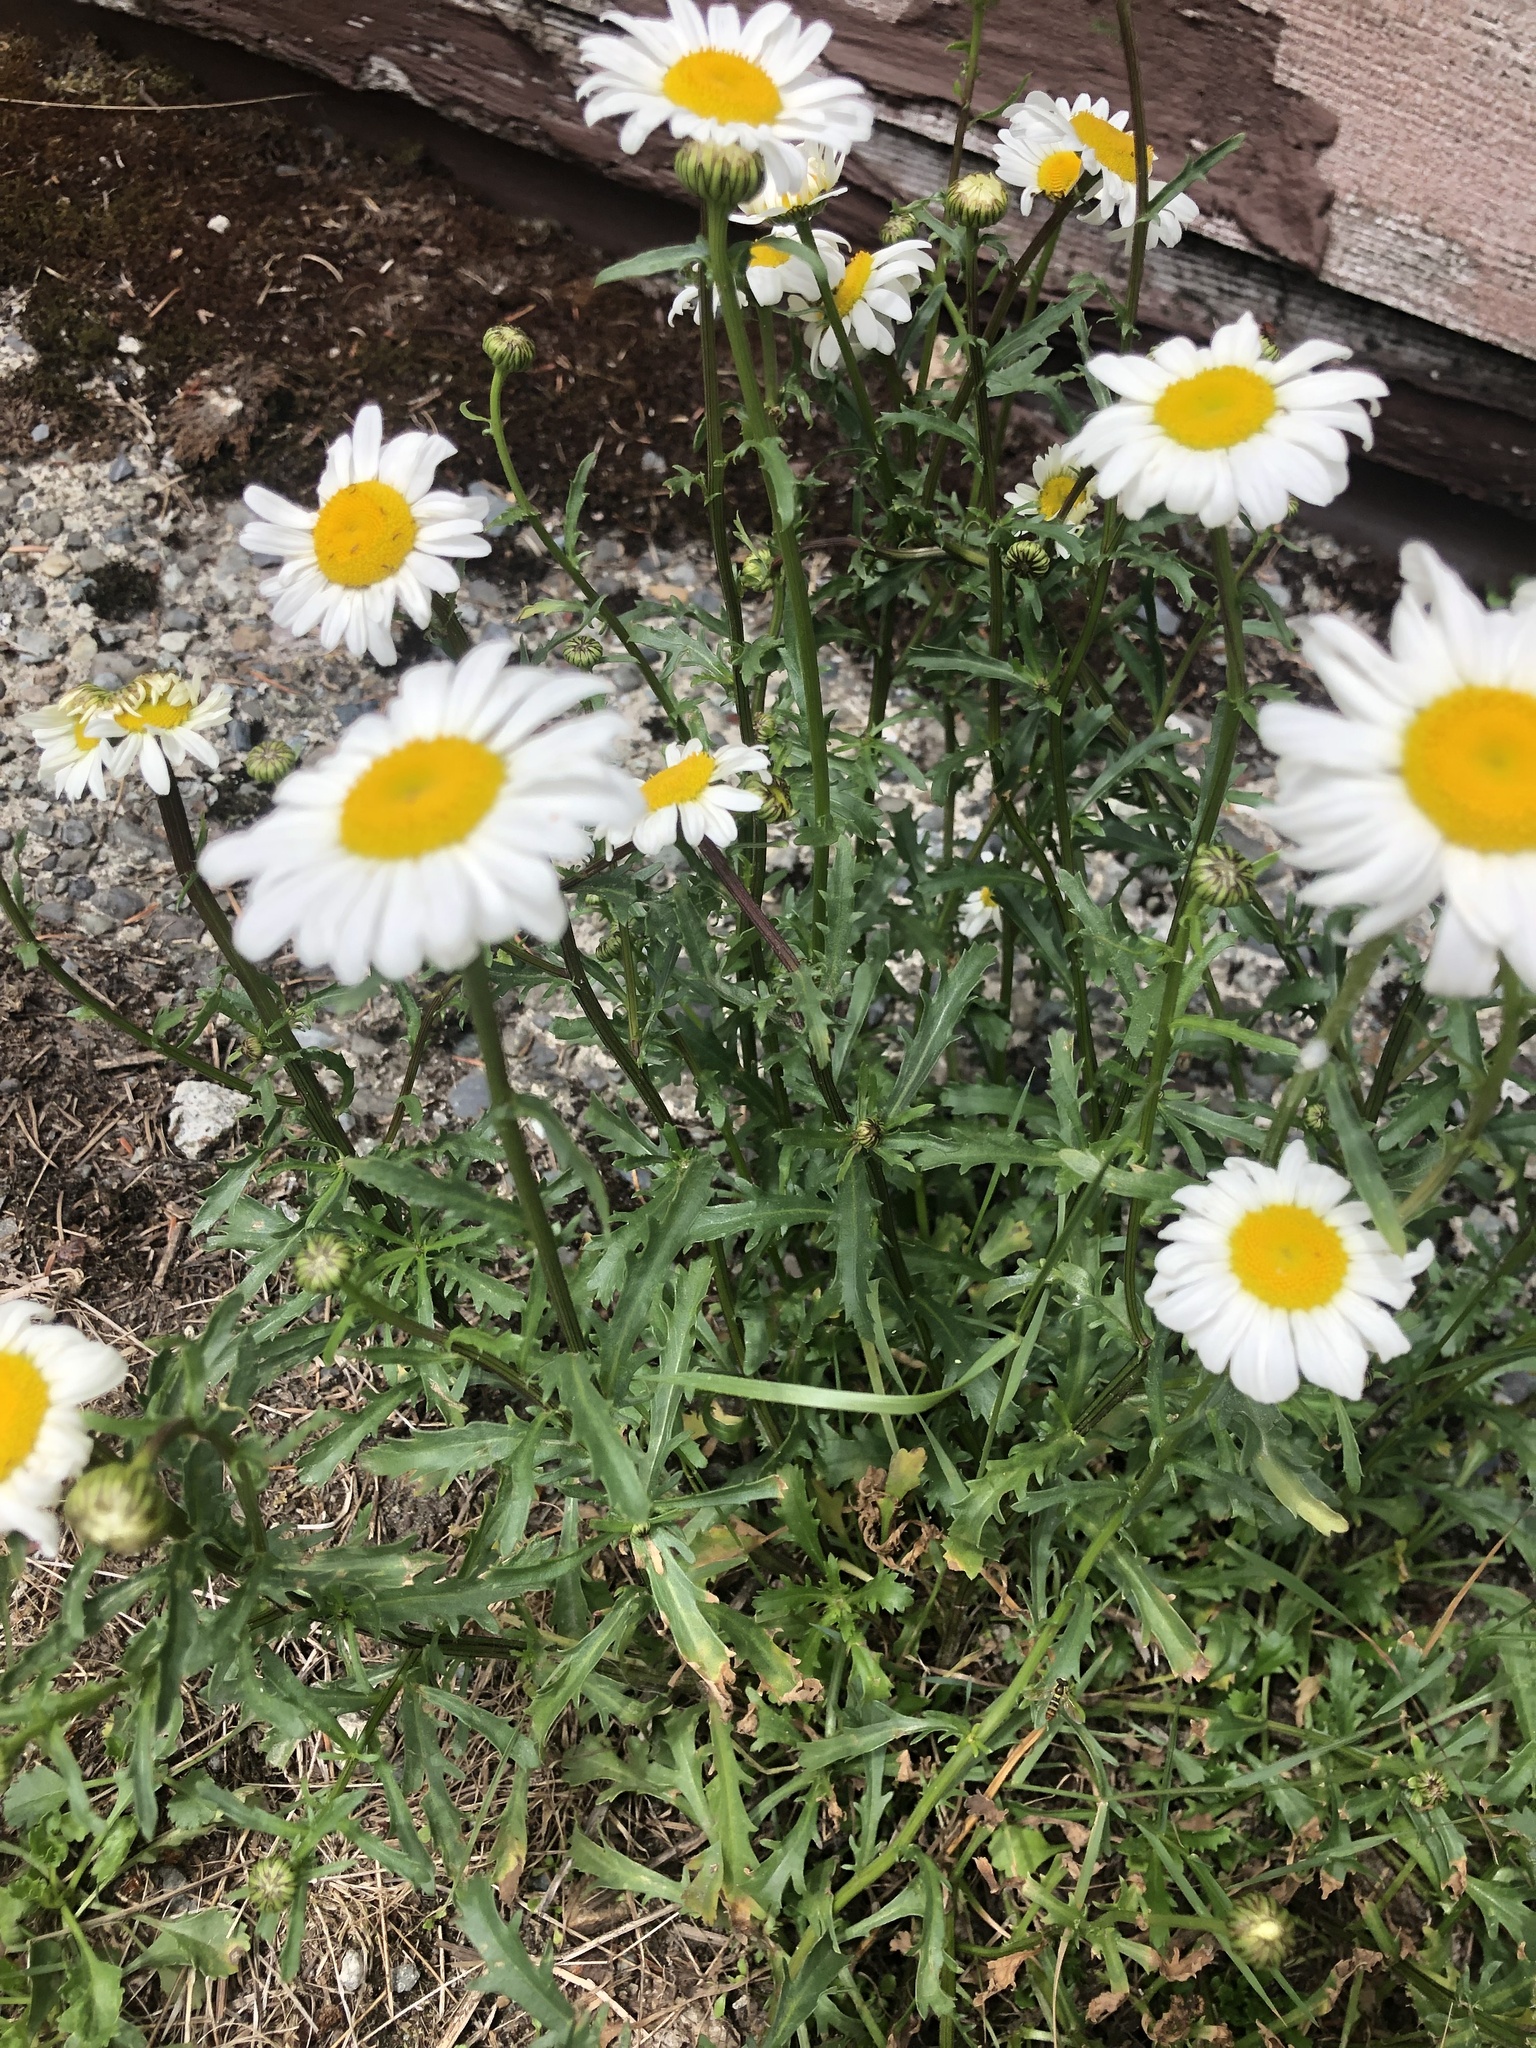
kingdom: Plantae
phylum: Tracheophyta
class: Magnoliopsida
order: Asterales
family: Asteraceae
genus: Leucanthemum
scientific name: Leucanthemum vulgare
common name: Oxeye daisy
